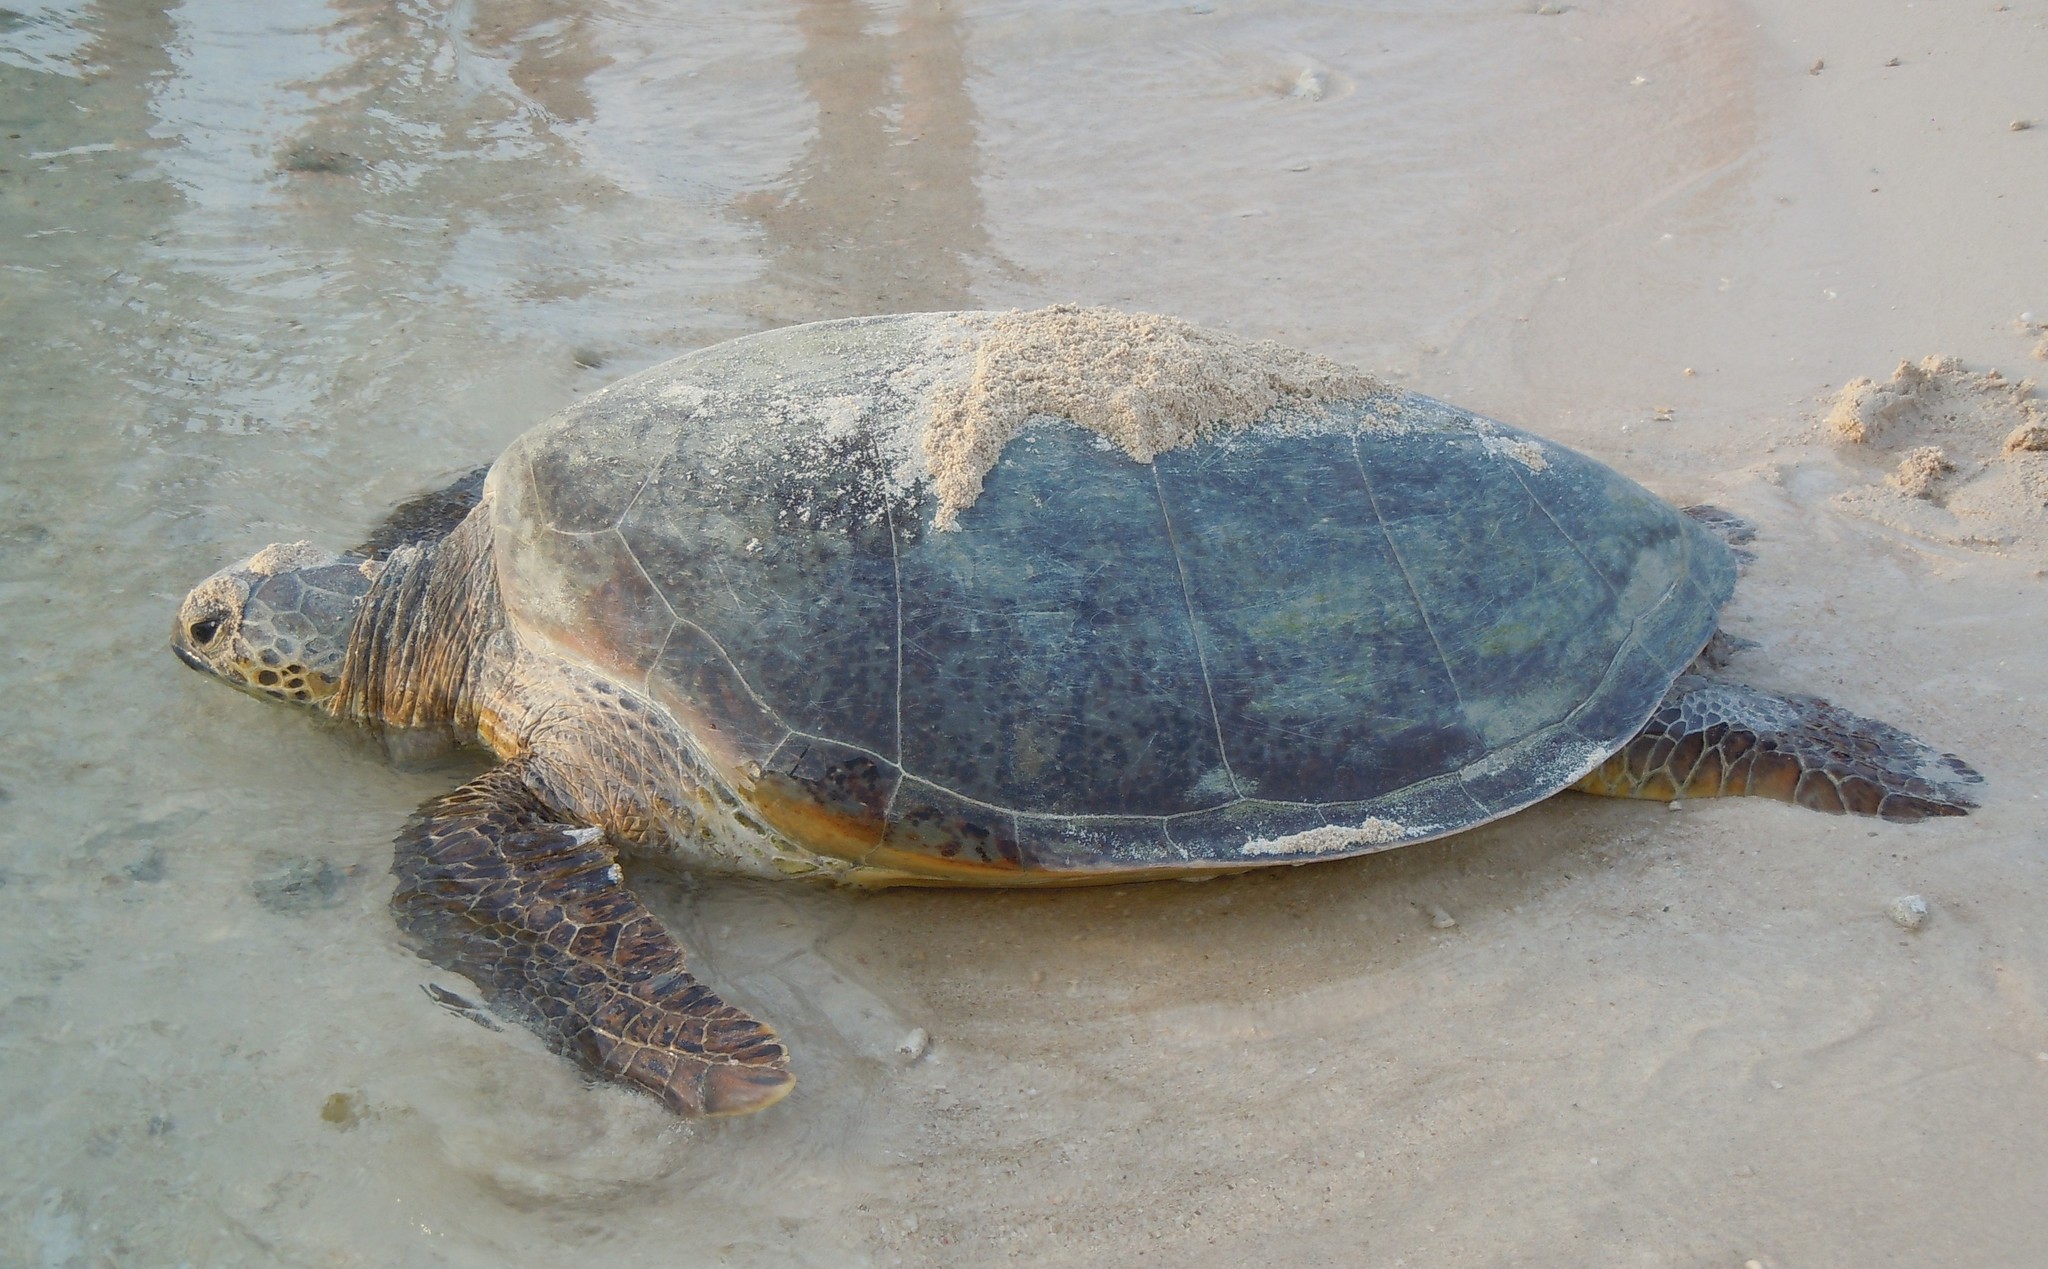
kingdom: Animalia
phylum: Chordata
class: Testudines
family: Cheloniidae
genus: Chelonia
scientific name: Chelonia mydas
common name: Green turtle
